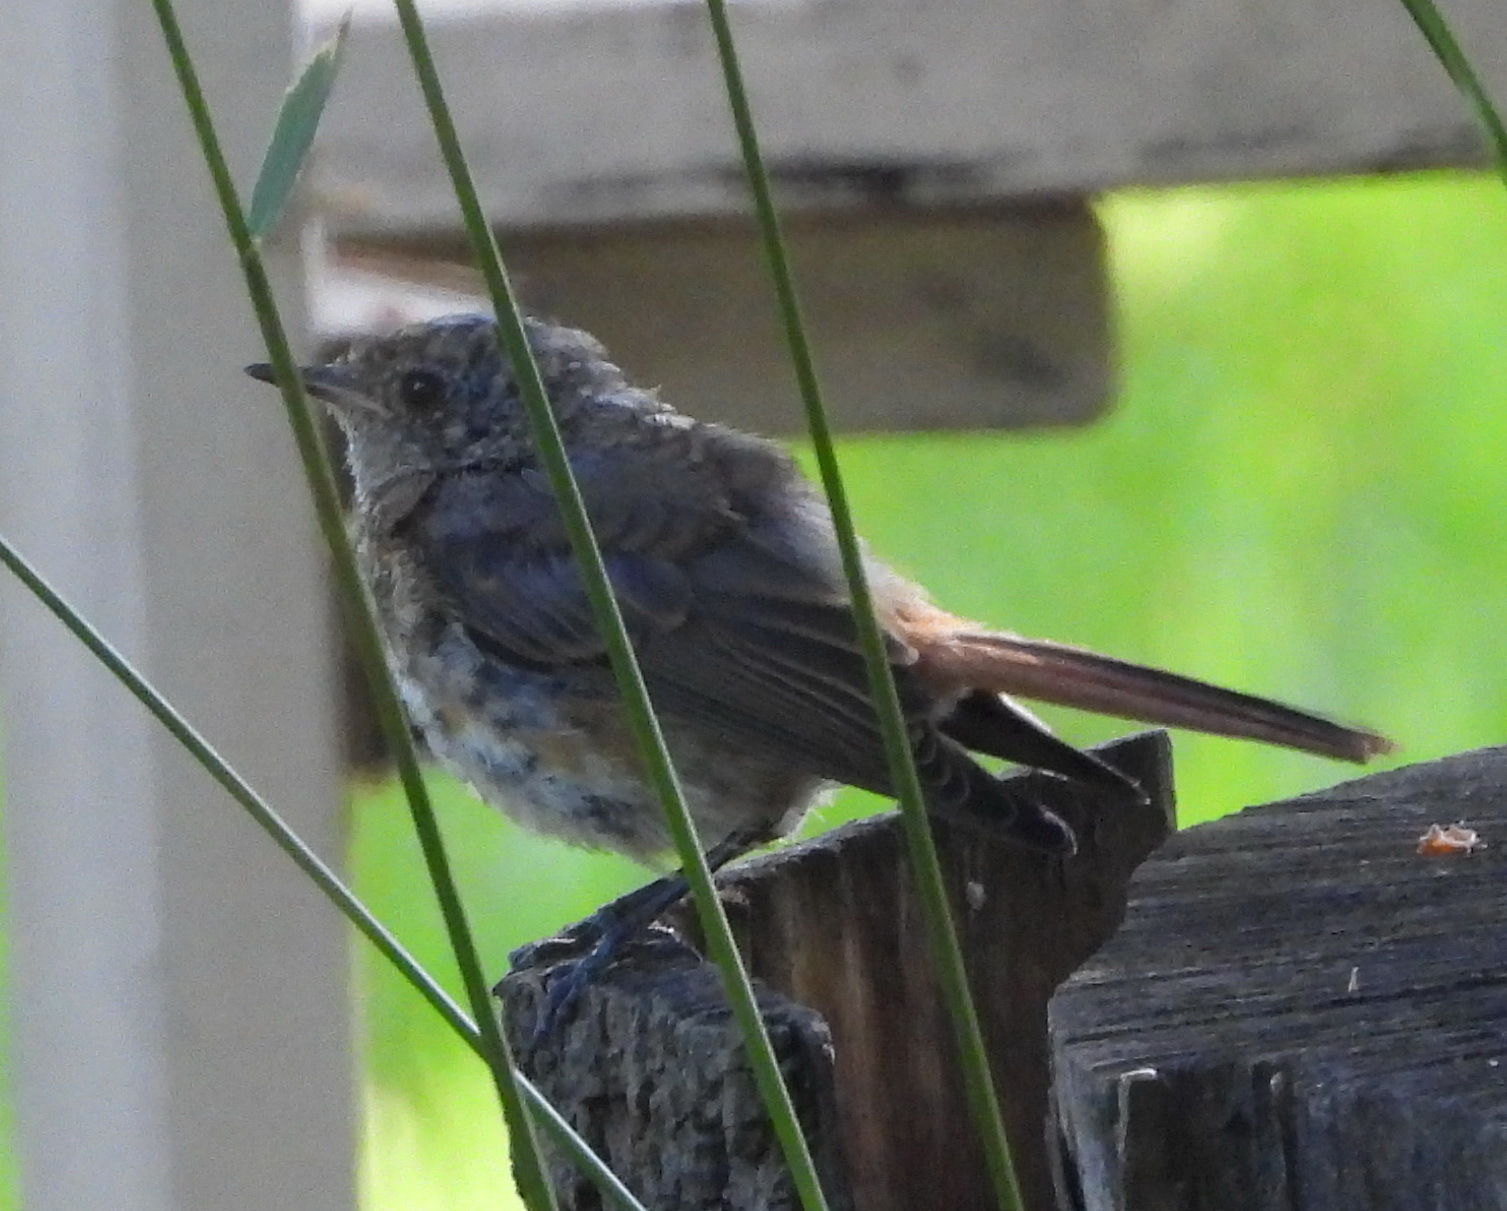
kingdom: Animalia
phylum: Chordata
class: Aves
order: Passeriformes
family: Muscicapidae
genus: Phoenicurus
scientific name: Phoenicurus phoenicurus
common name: Common redstart
